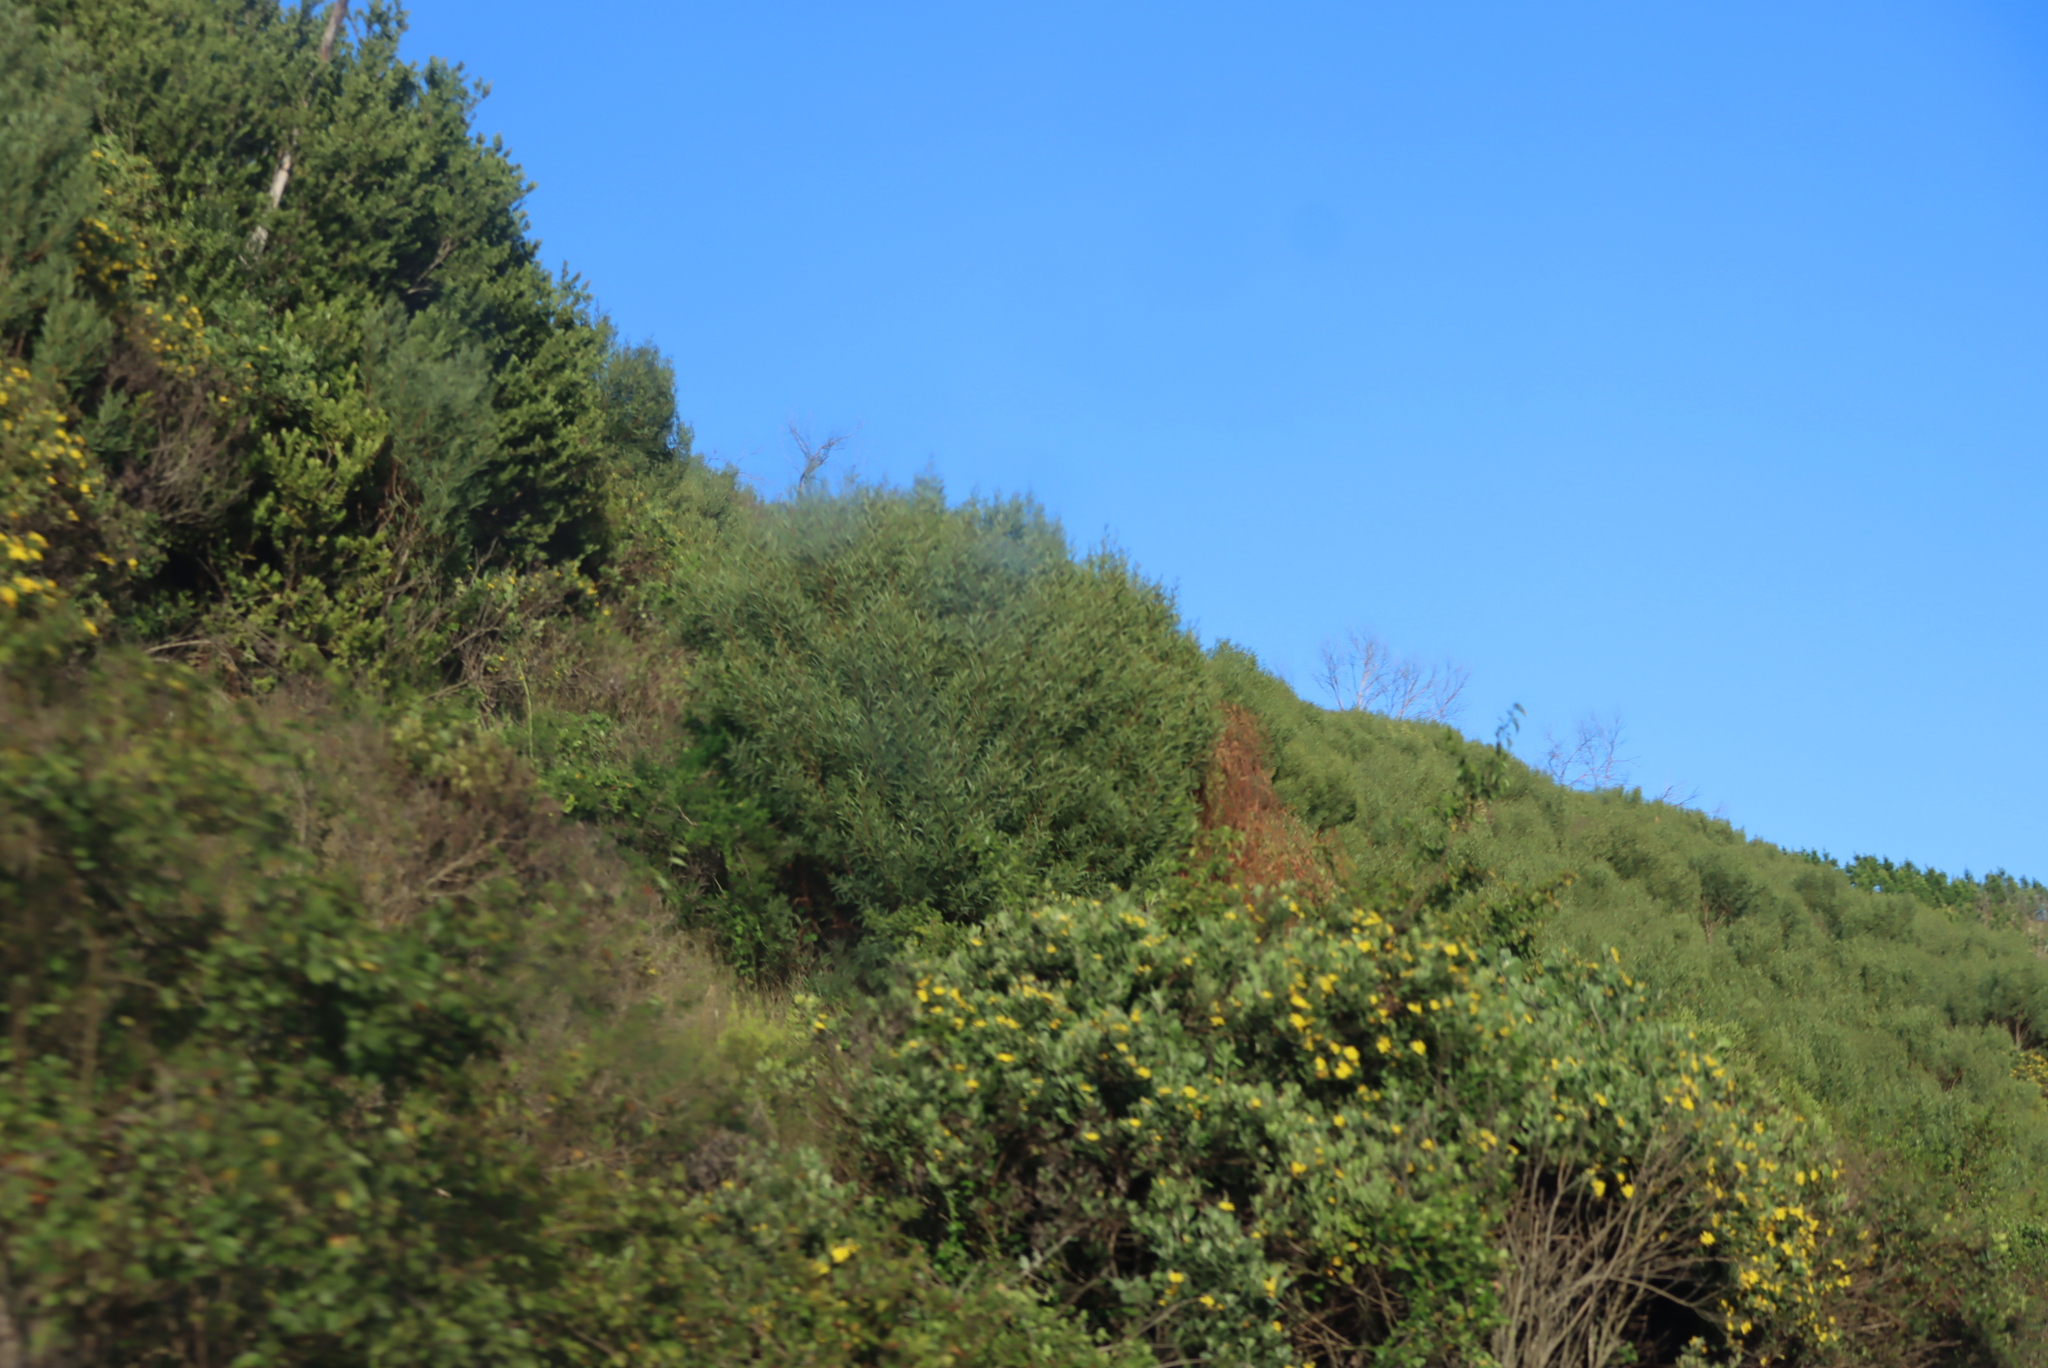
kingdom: Plantae
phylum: Tracheophyta
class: Magnoliopsida
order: Fabales
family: Fabaceae
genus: Acacia
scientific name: Acacia cyclops
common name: Coastal wattle
